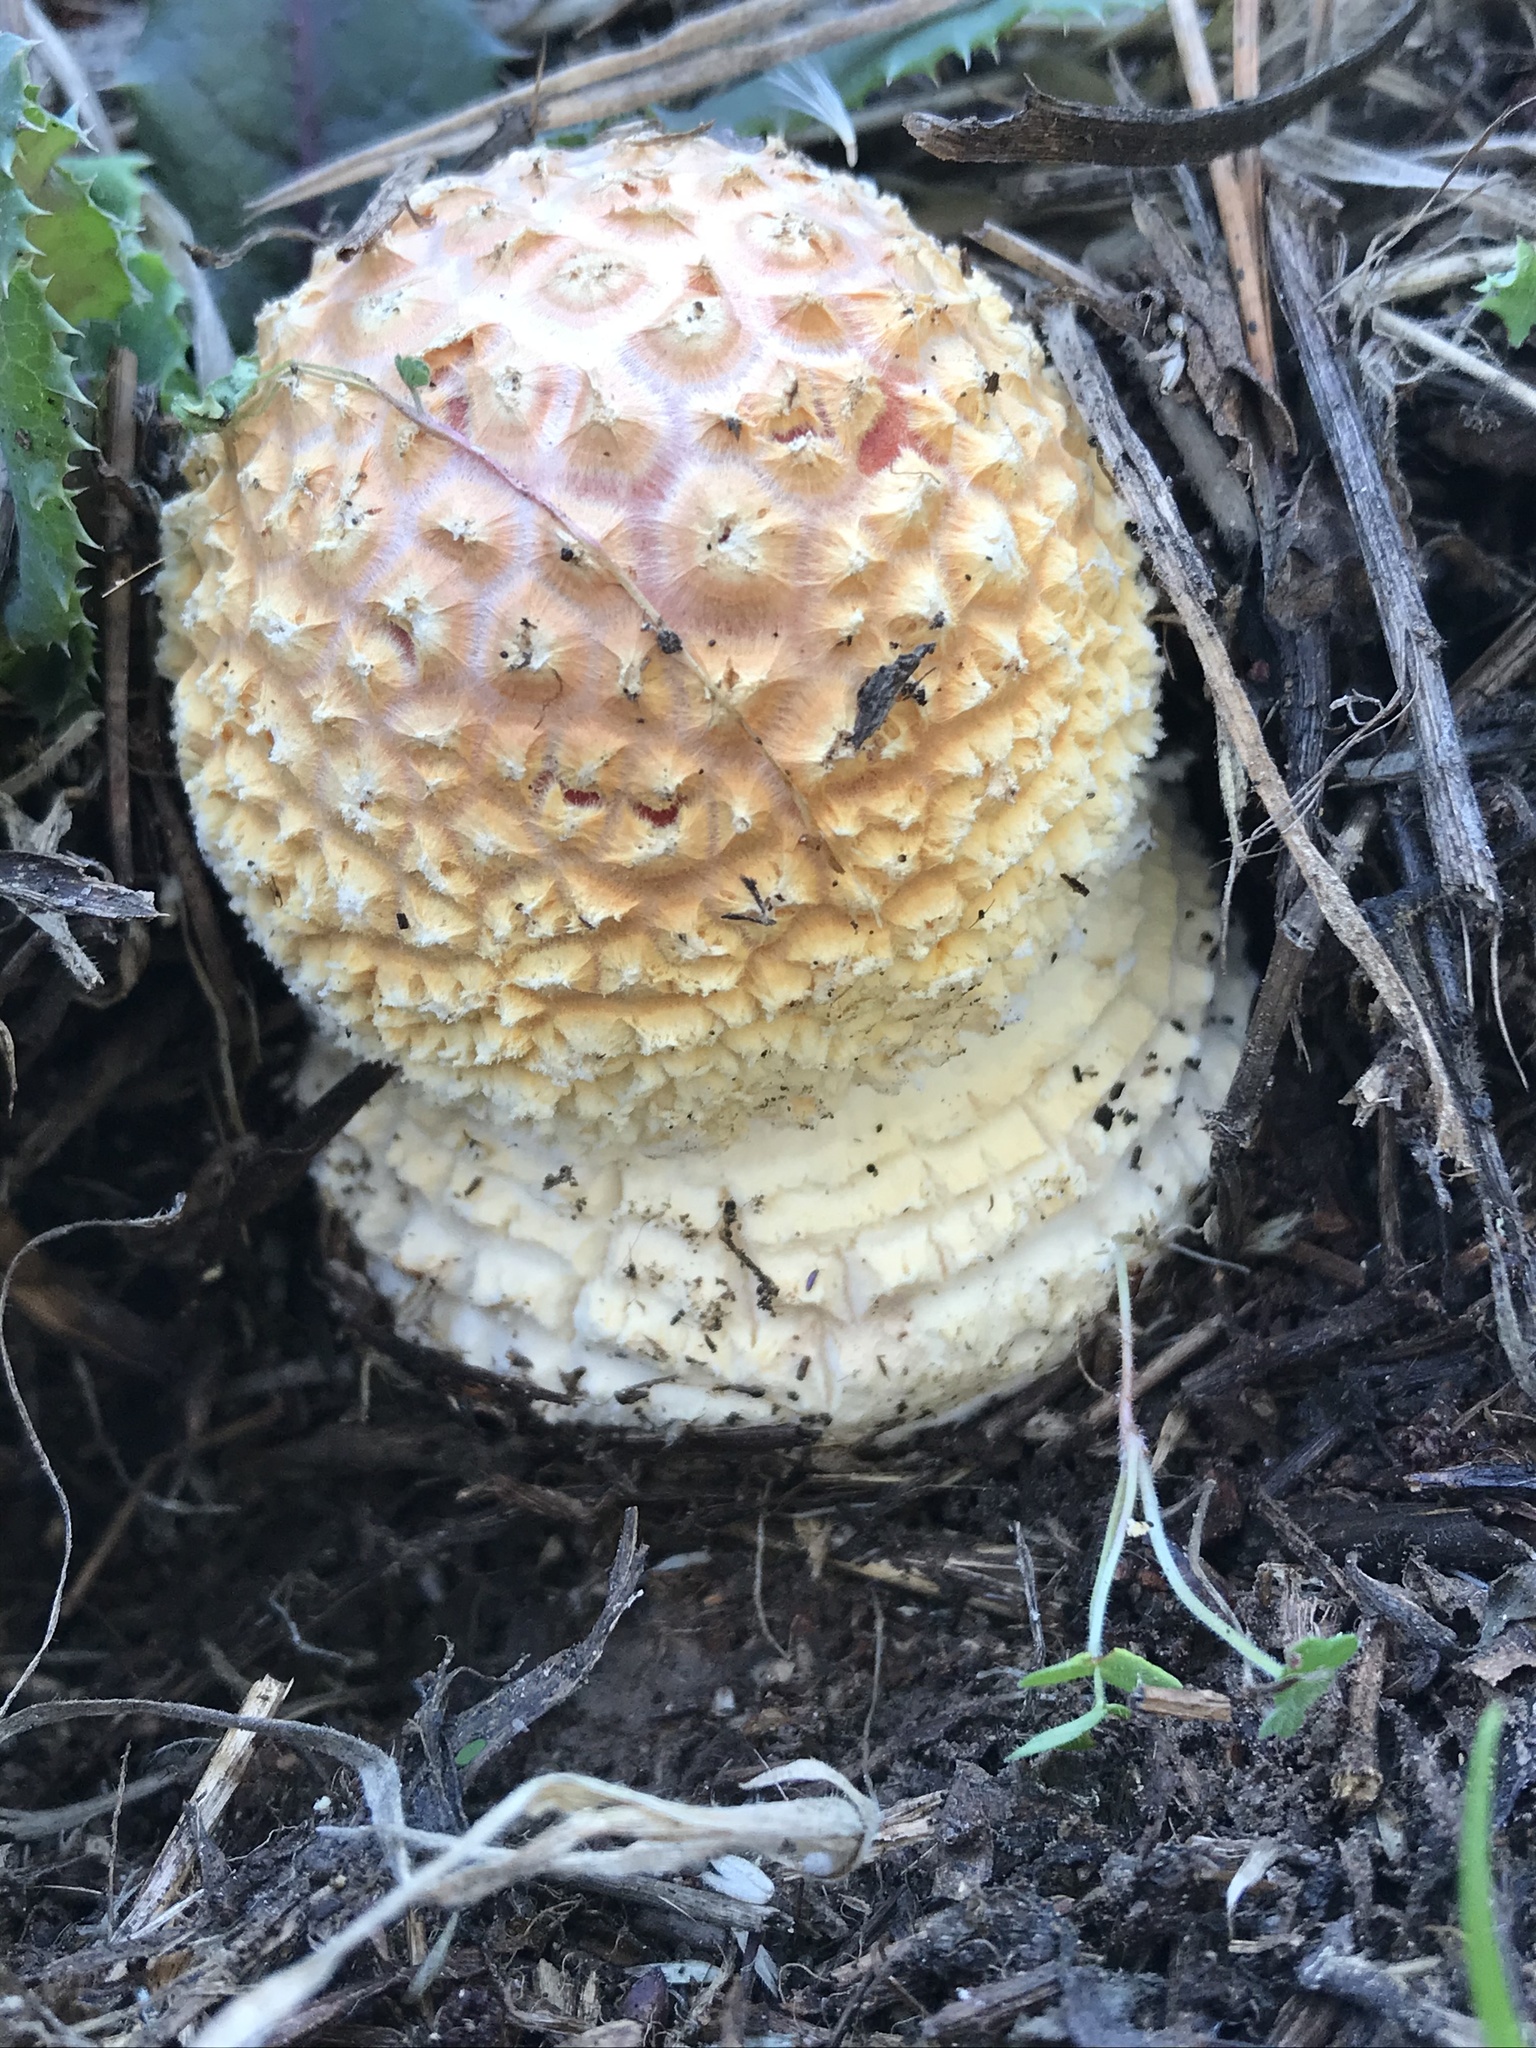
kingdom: Fungi
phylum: Basidiomycota
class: Agaricomycetes
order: Agaricales
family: Amanitaceae
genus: Amanita
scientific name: Amanita muscaria
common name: Fly agaric
